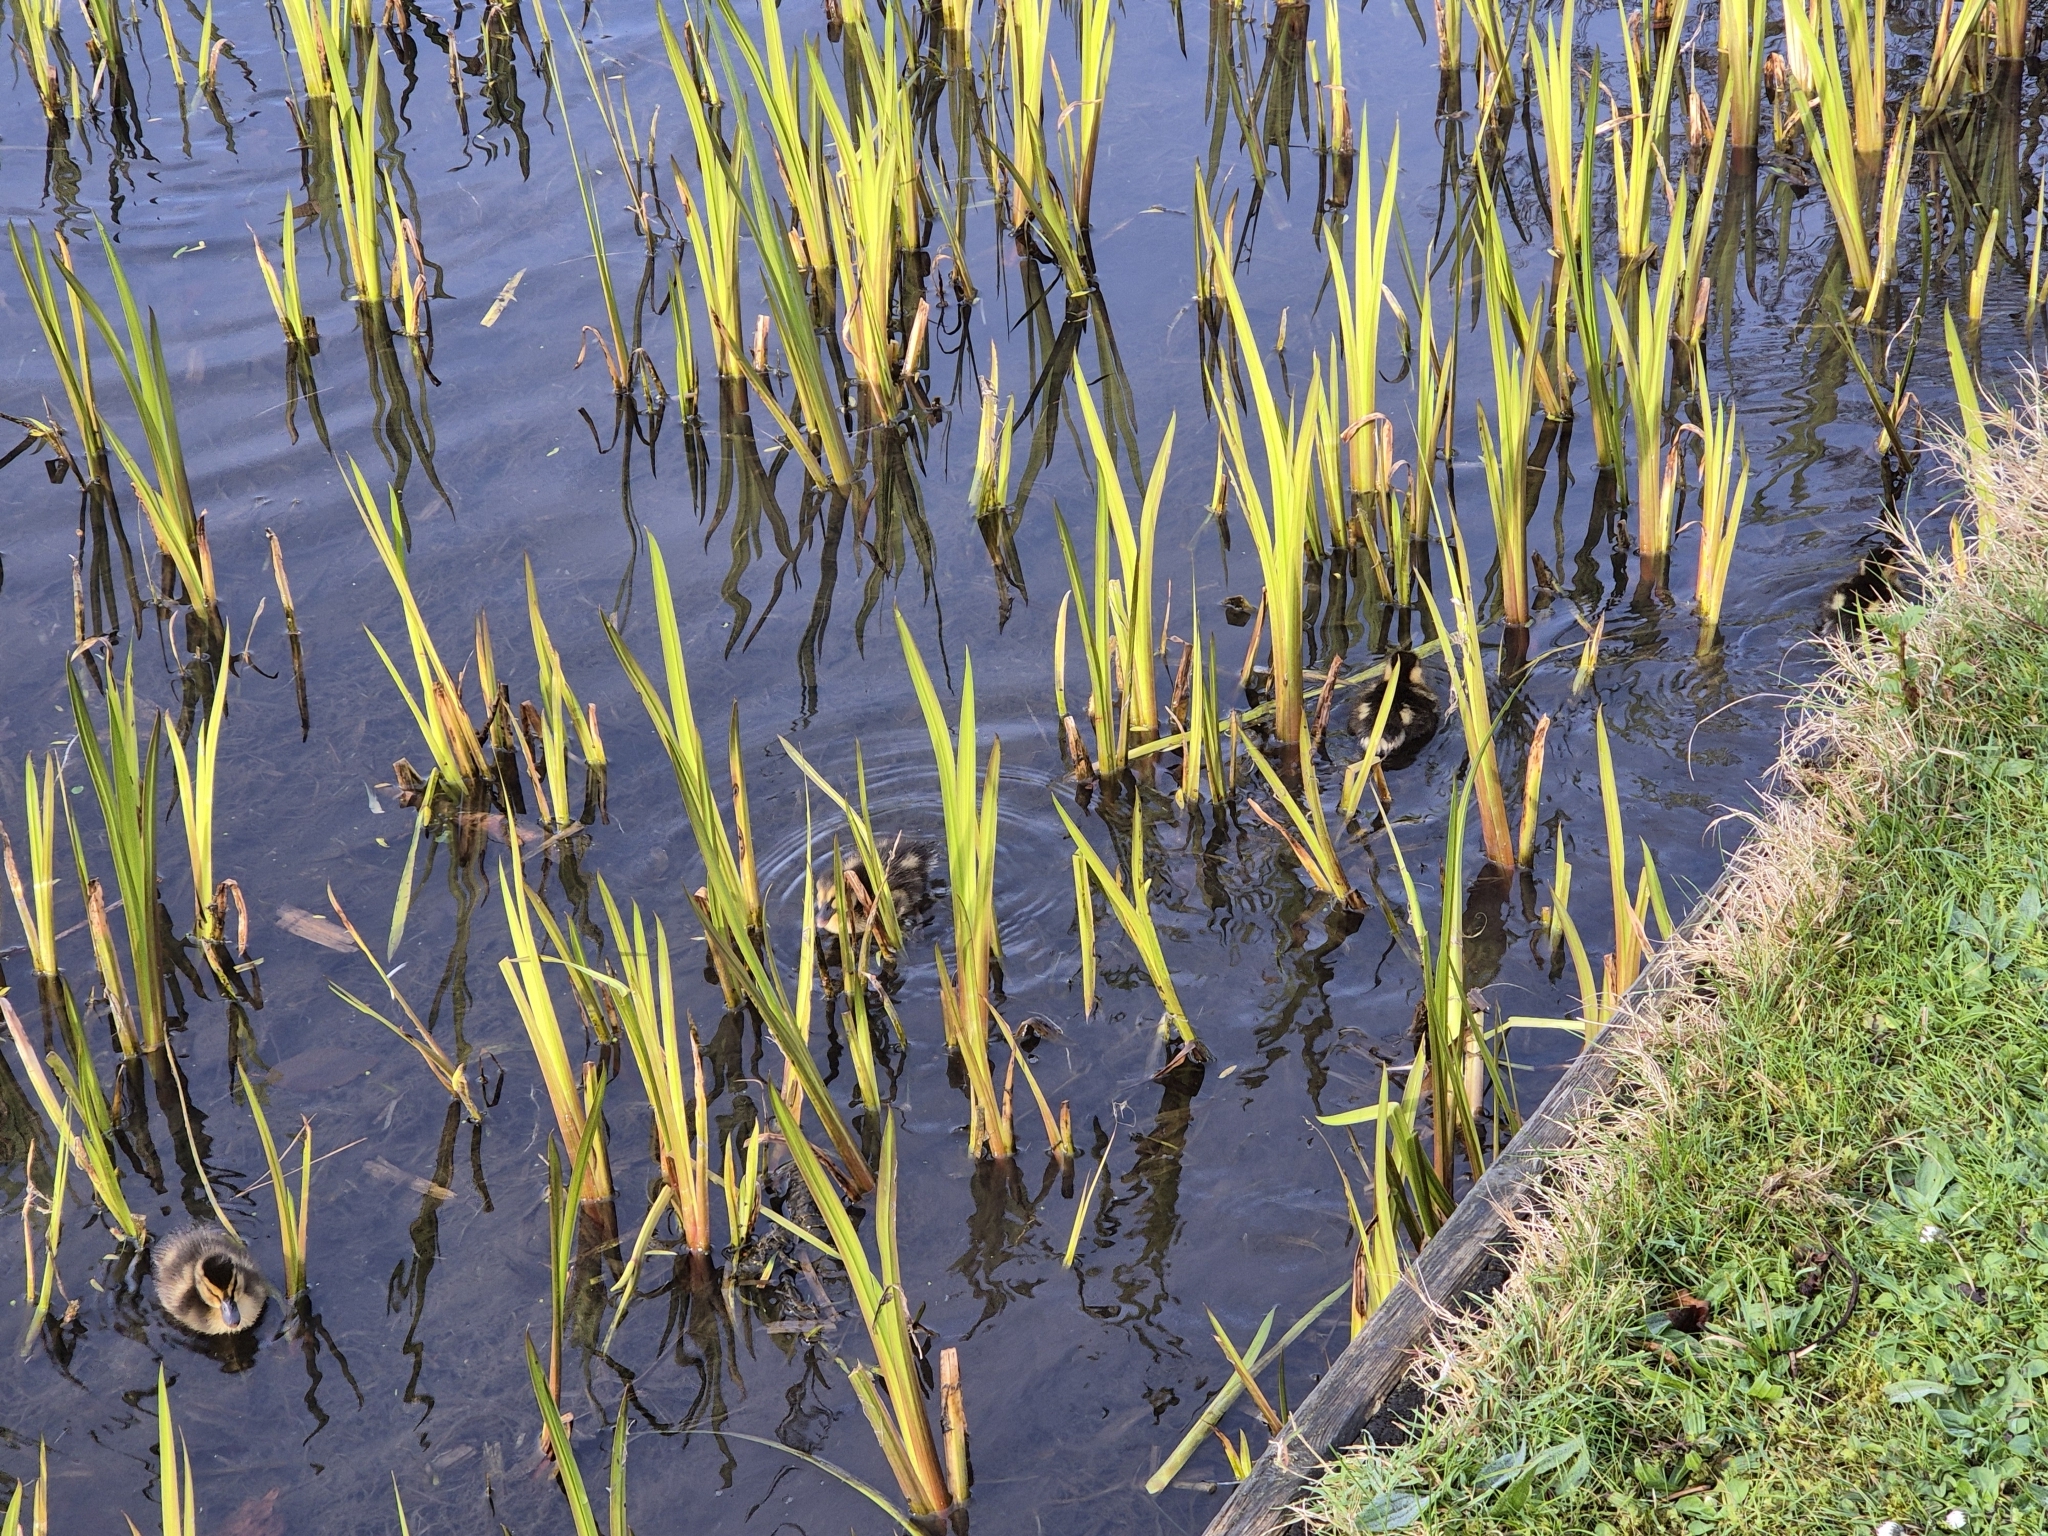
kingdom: Animalia
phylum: Chordata
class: Aves
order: Anseriformes
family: Anatidae
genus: Anas
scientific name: Anas platyrhynchos
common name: Mallard
